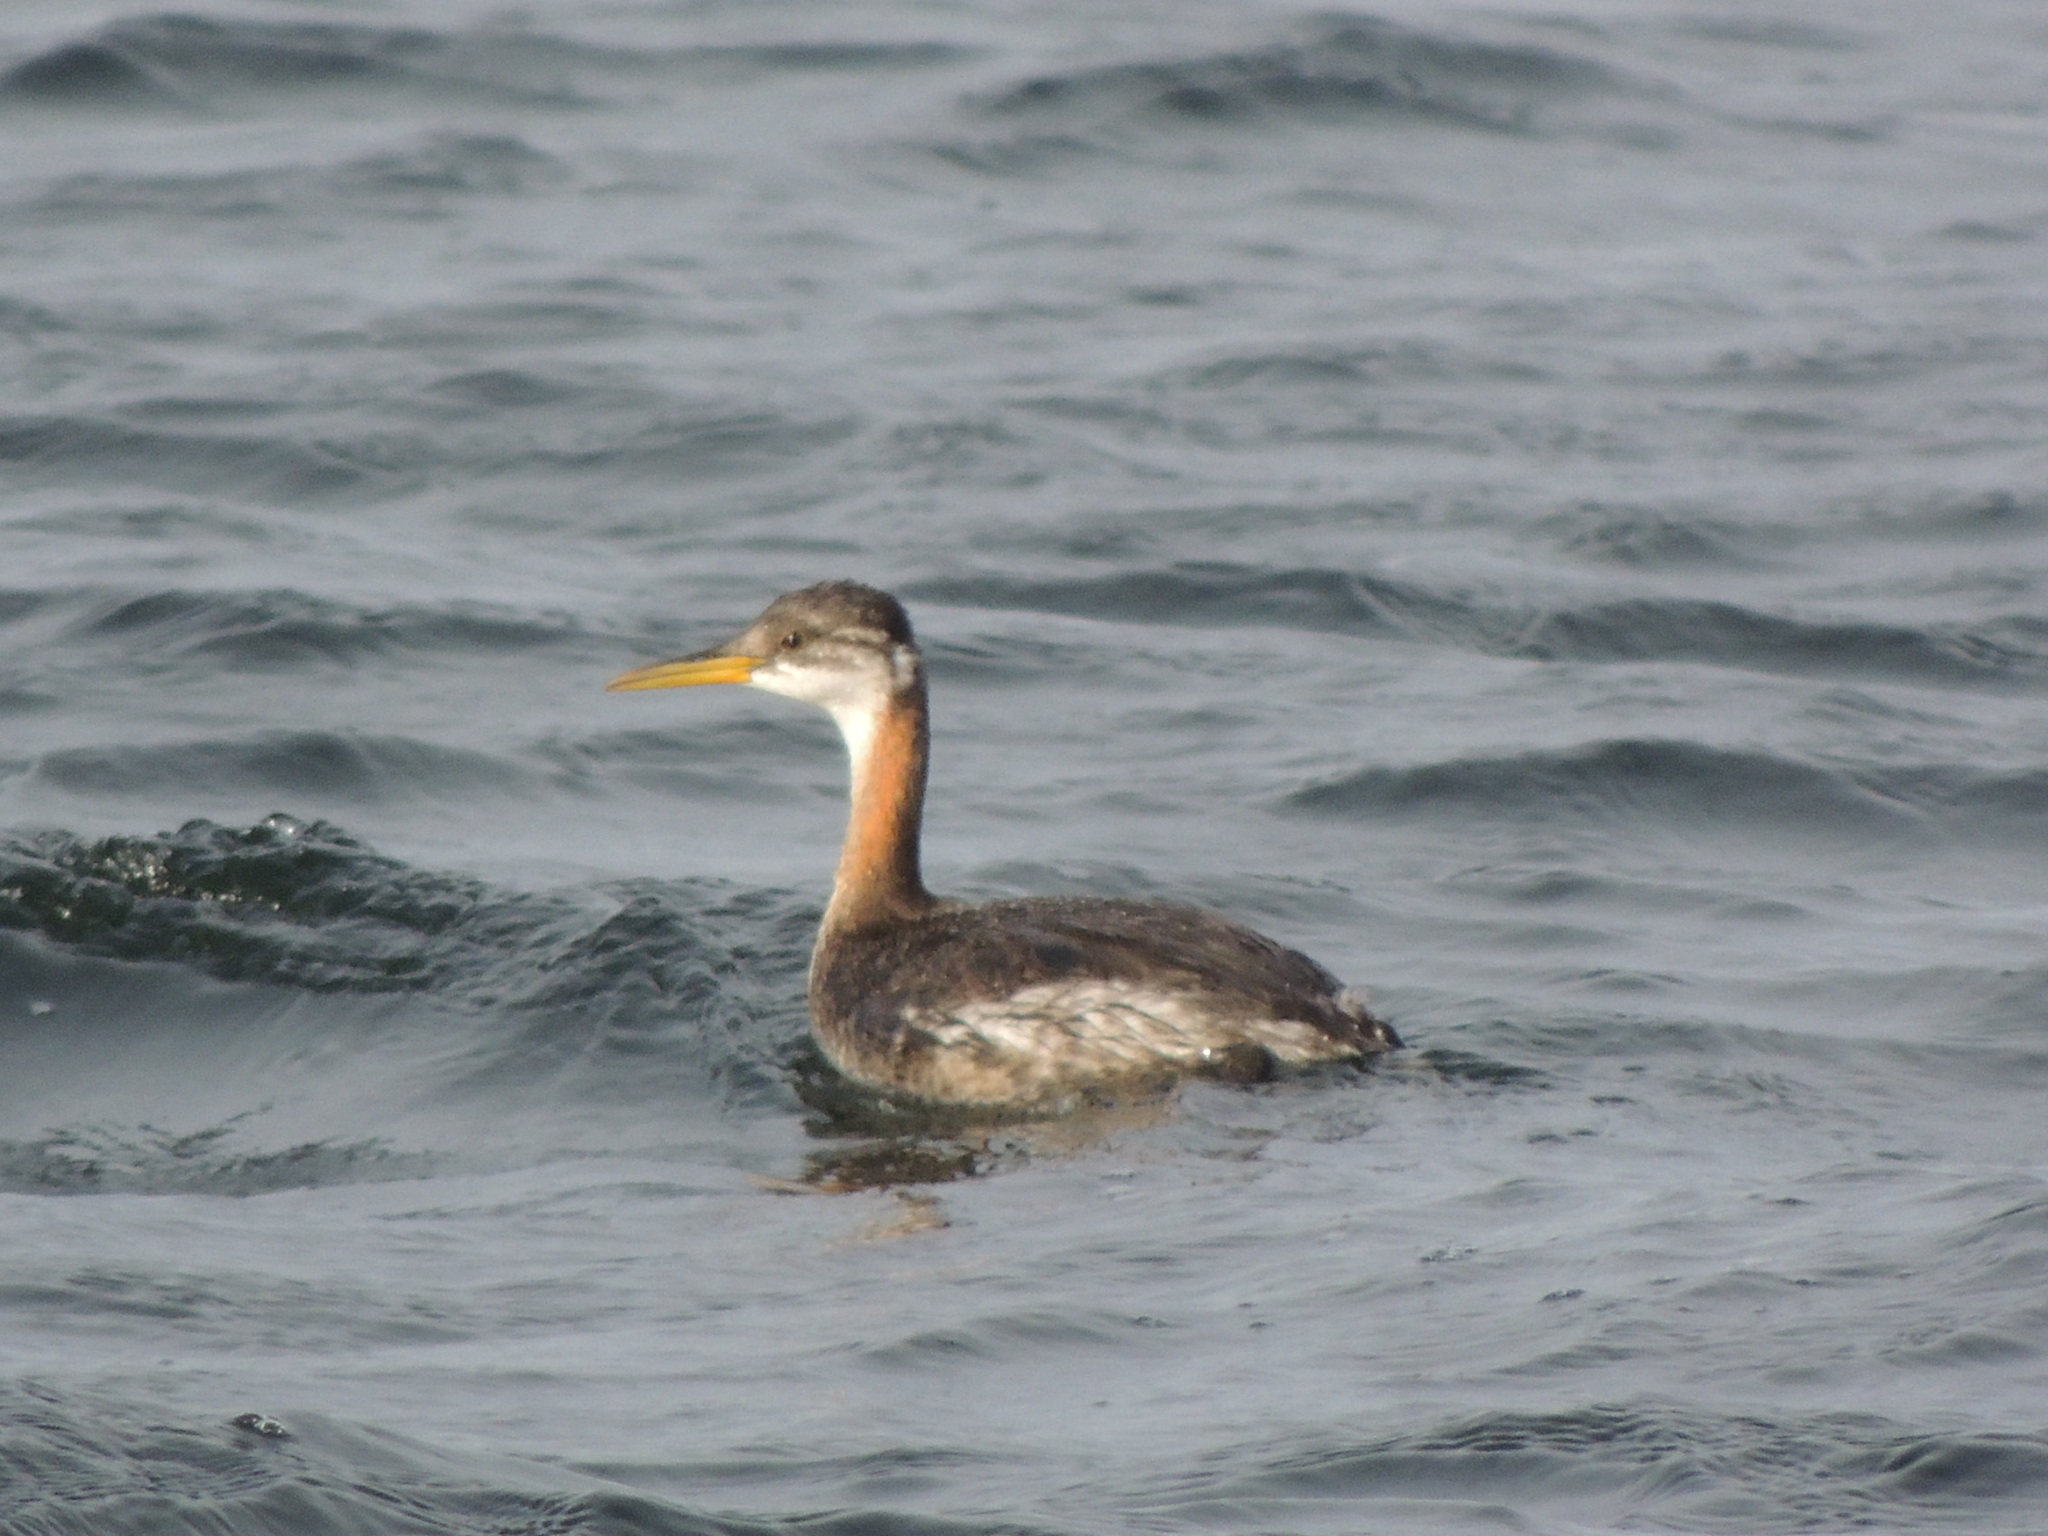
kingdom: Animalia
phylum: Chordata
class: Aves
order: Podicipediformes
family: Podicipedidae
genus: Podiceps
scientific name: Podiceps grisegena
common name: Red-necked grebe
